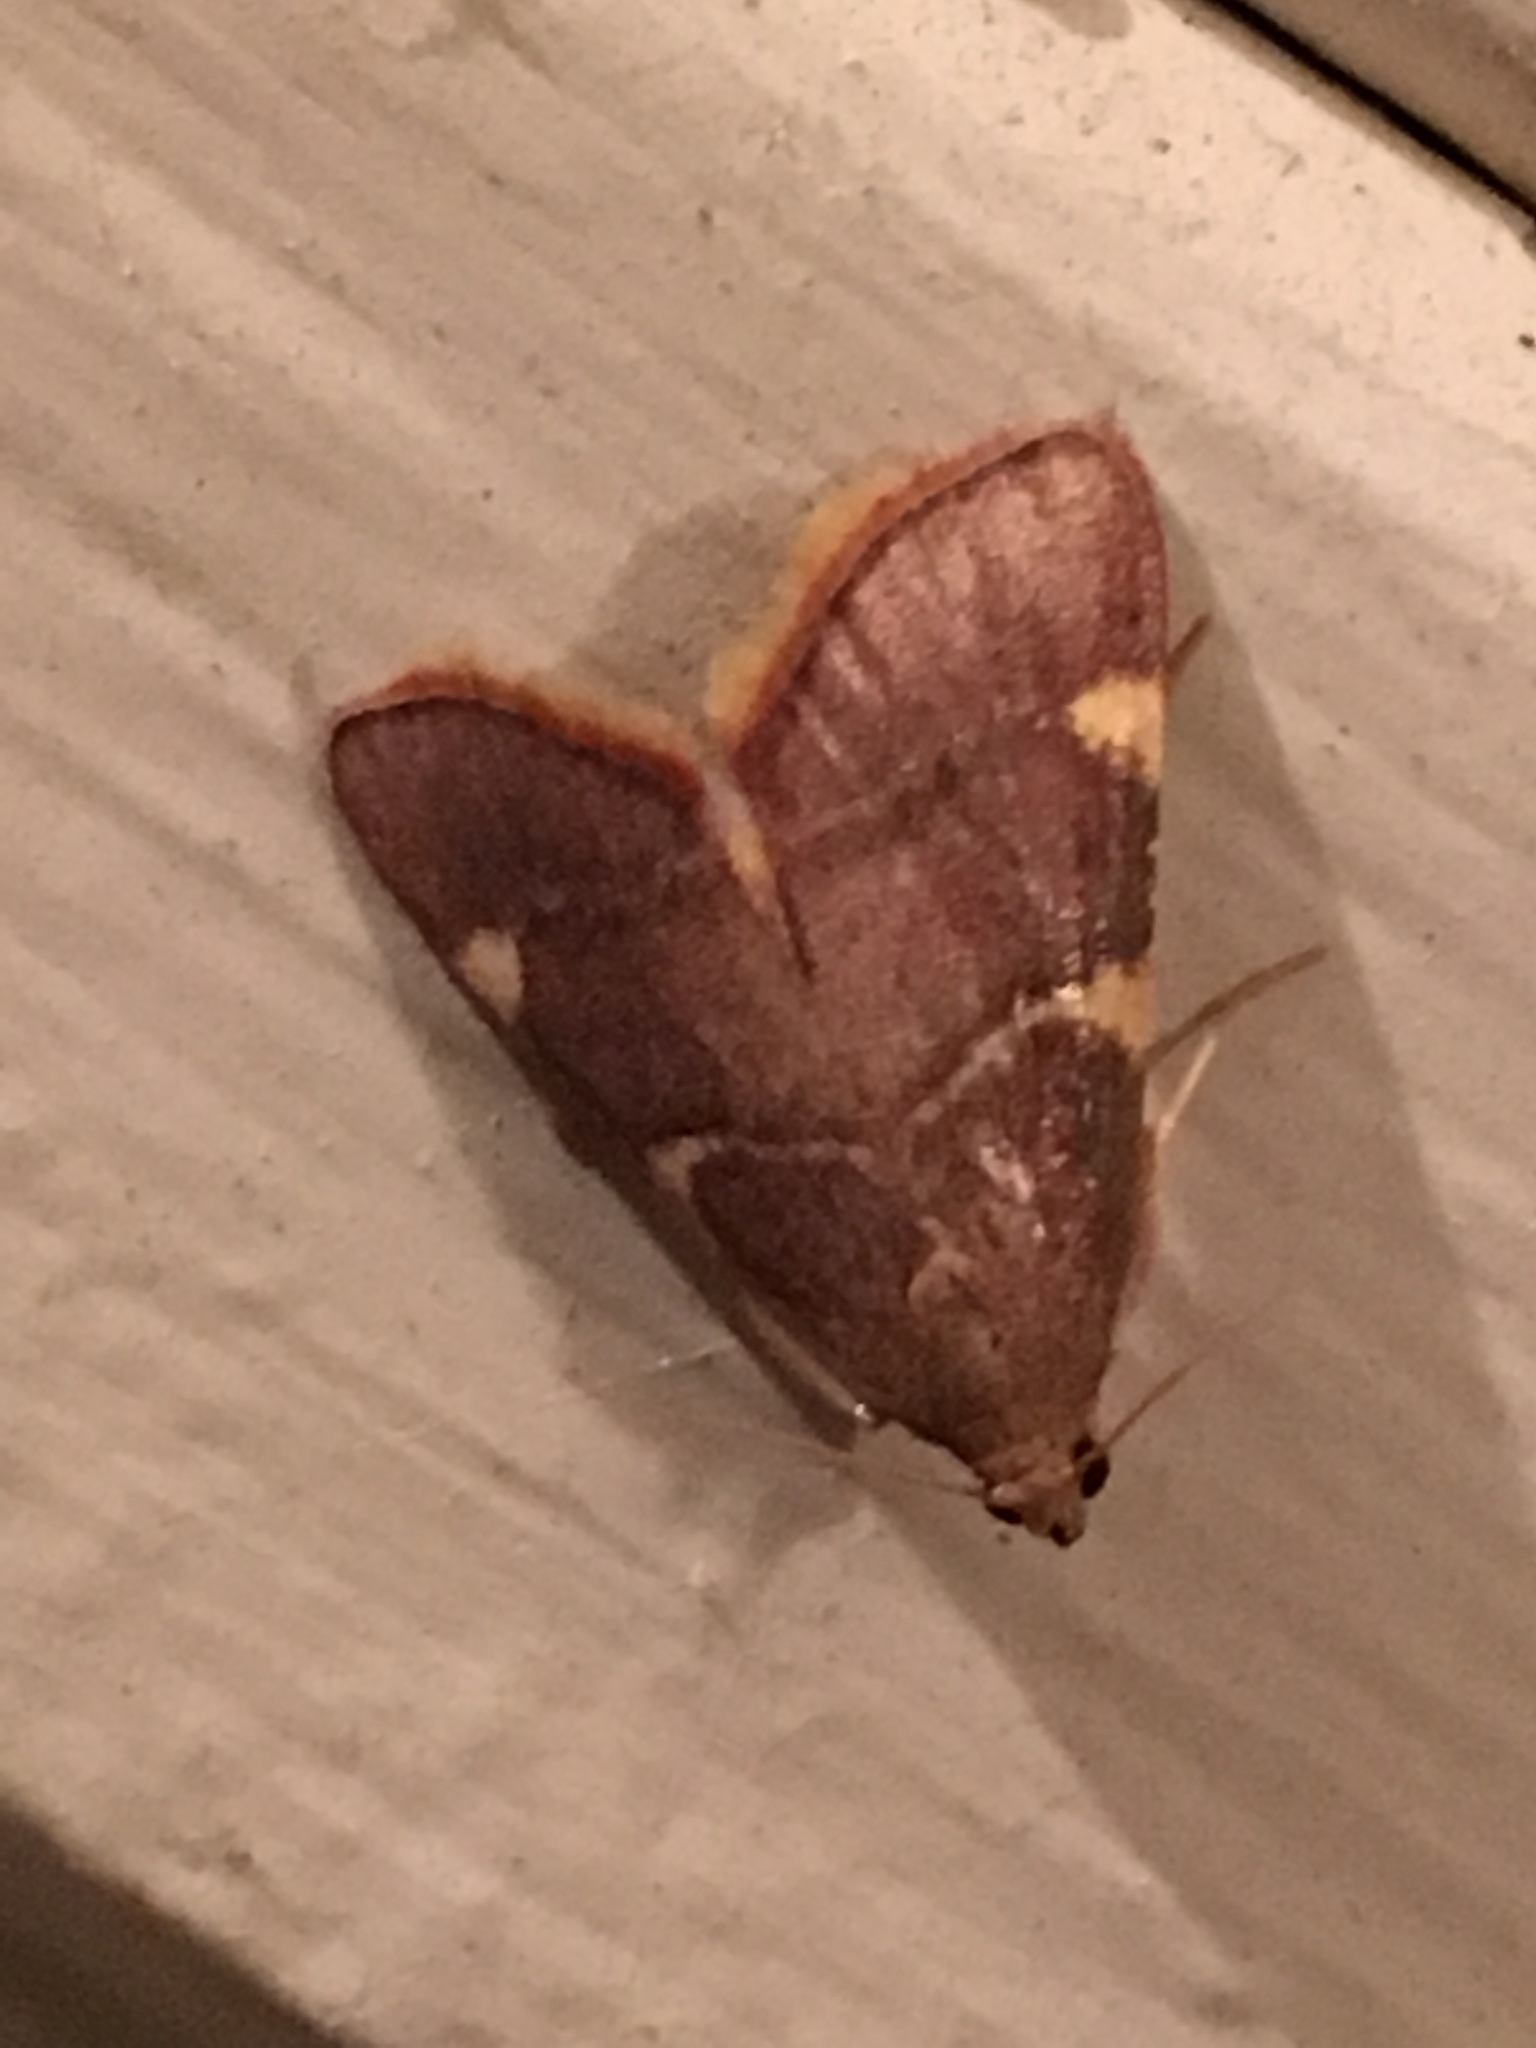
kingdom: Animalia
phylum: Arthropoda
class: Insecta
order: Lepidoptera
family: Pyralidae
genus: Hypsopygia
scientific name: Hypsopygia olinalis
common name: Yellow-fringed dolichomia moth
